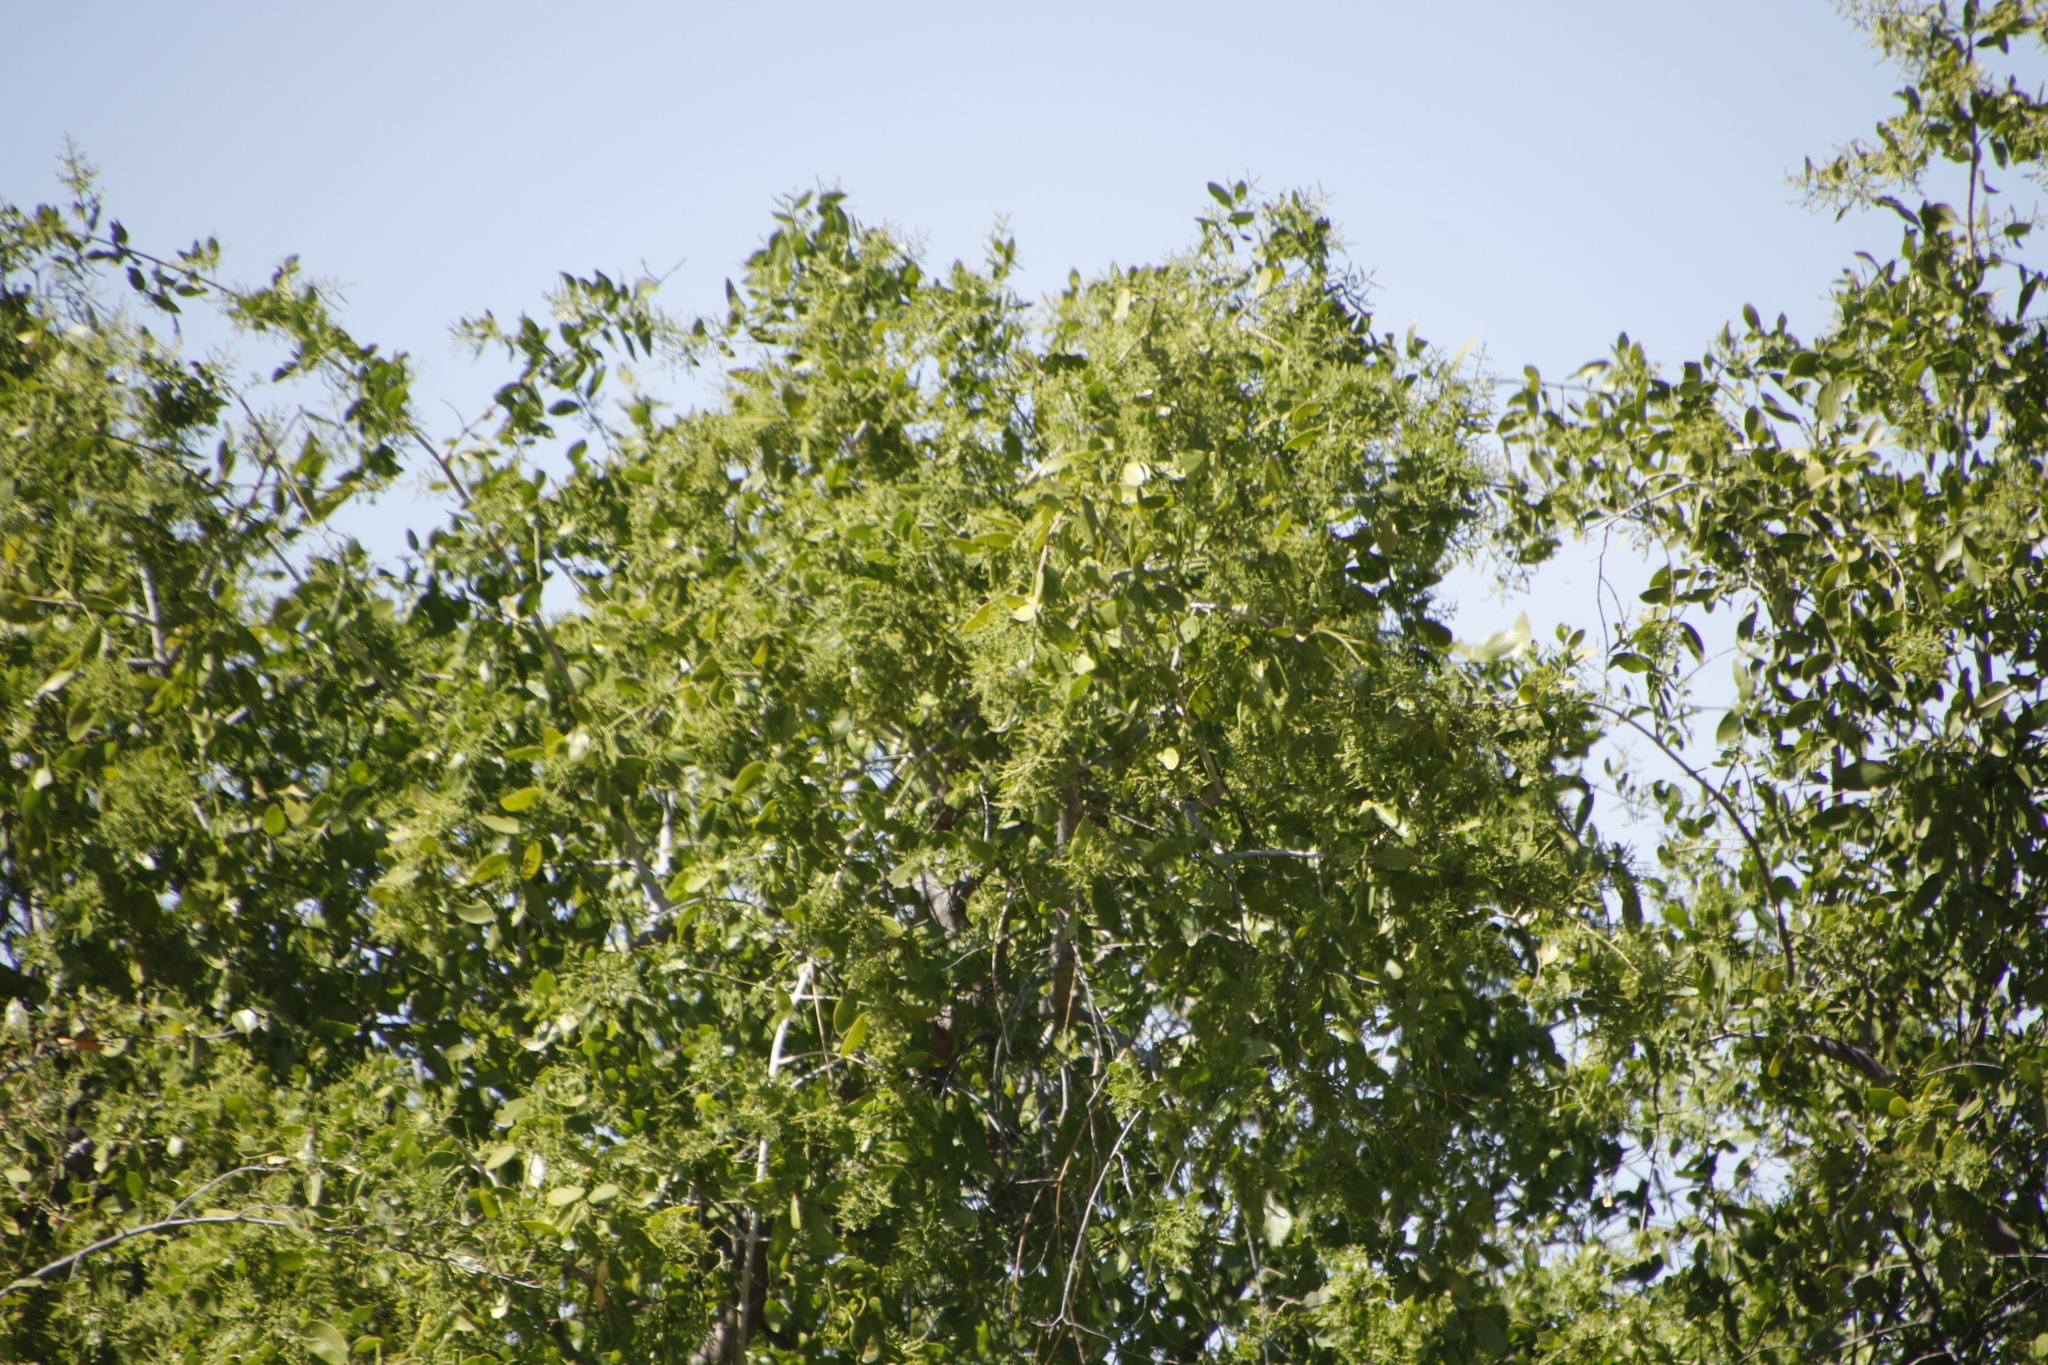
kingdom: Plantae
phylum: Tracheophyta
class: Magnoliopsida
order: Brassicales
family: Salvadoraceae
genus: Salvadora
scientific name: Salvadora persica
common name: Toothbrushtree
